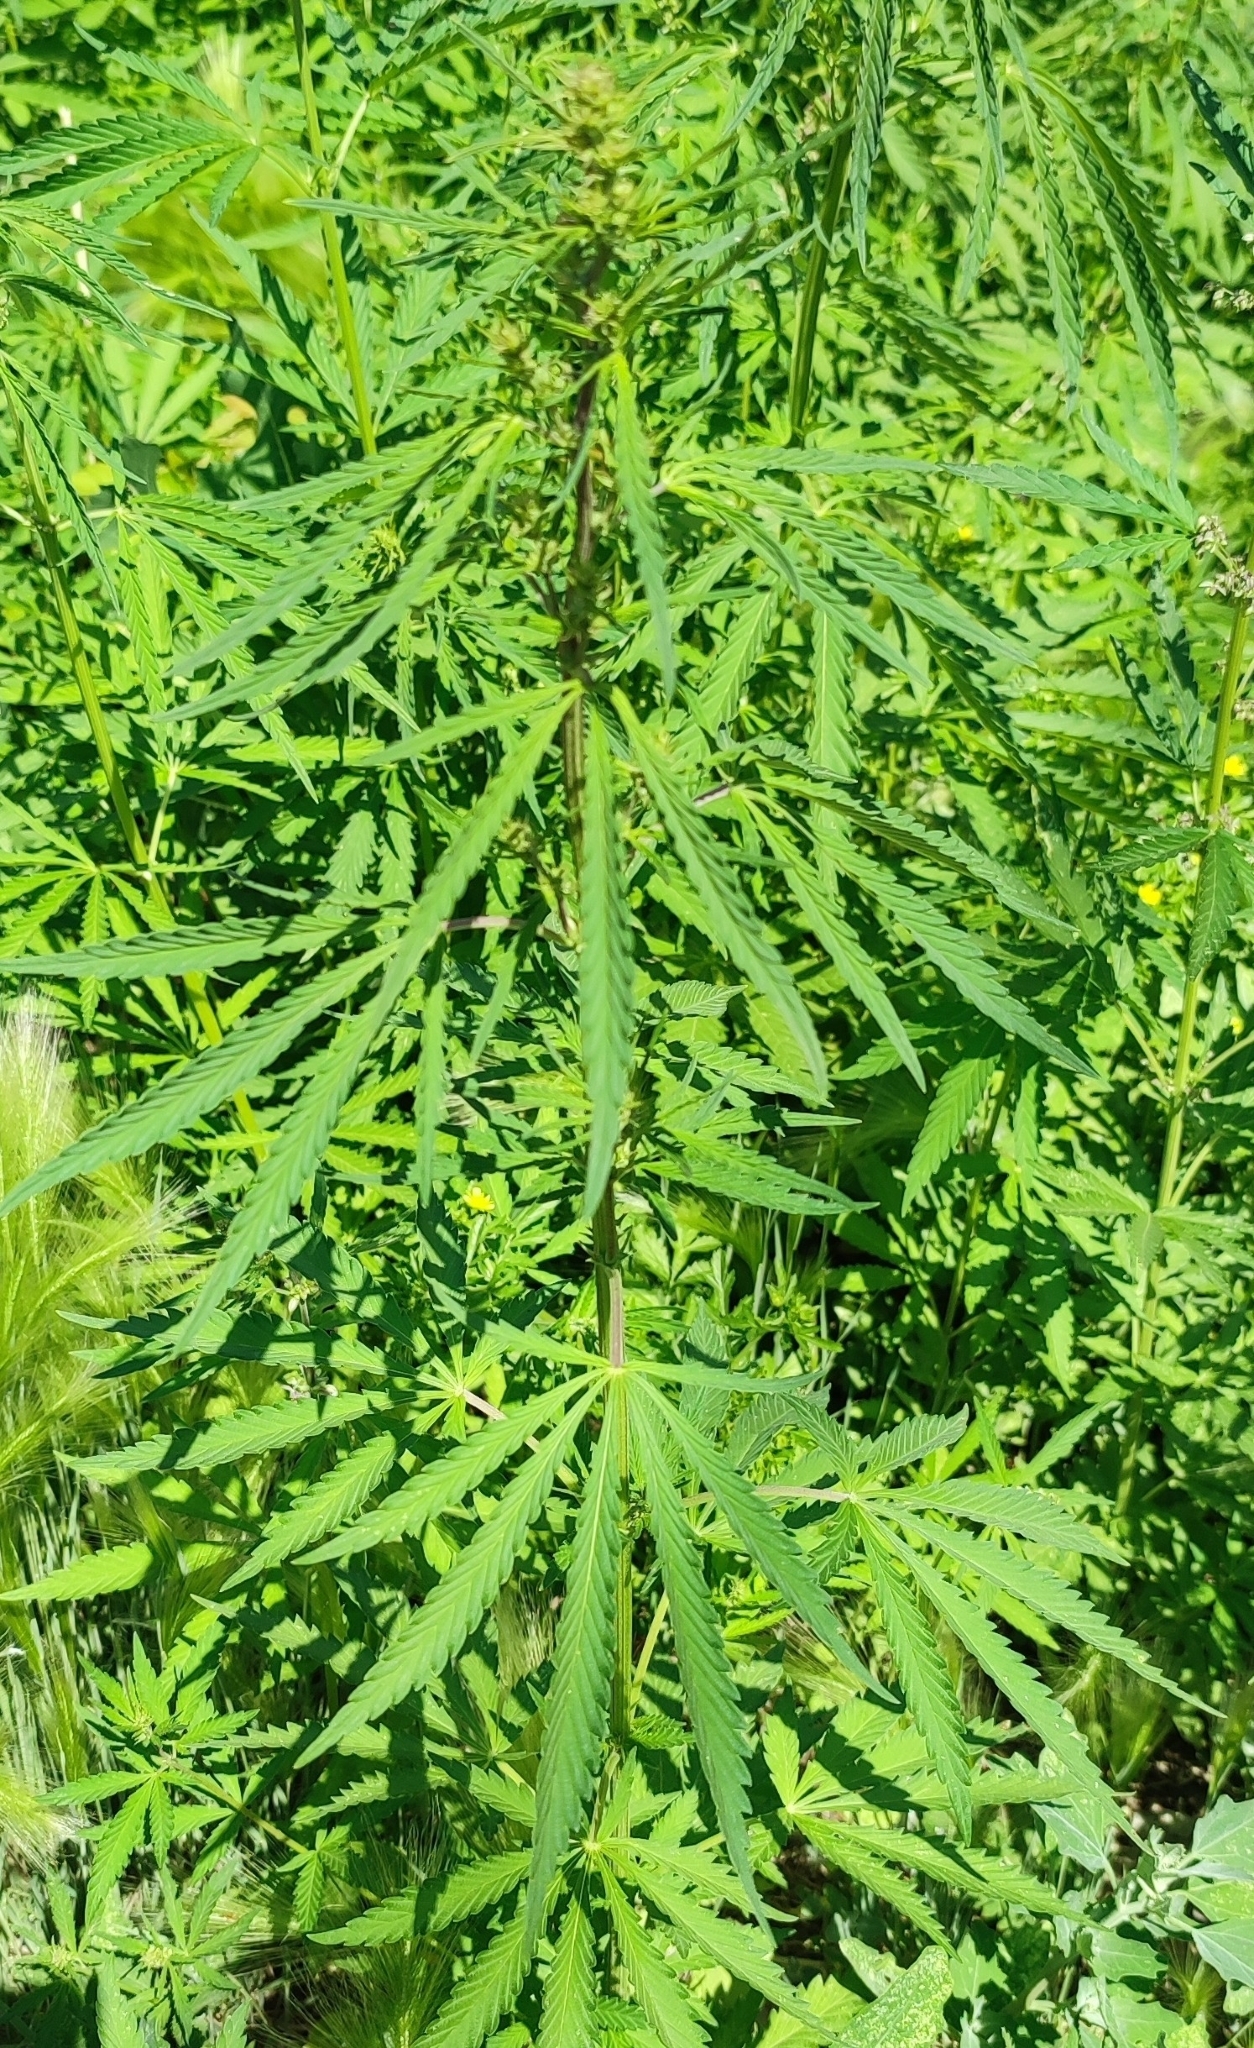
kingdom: Plantae
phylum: Tracheophyta
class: Magnoliopsida
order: Rosales
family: Cannabaceae
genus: Cannabis
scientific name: Cannabis sativa
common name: Hemp
